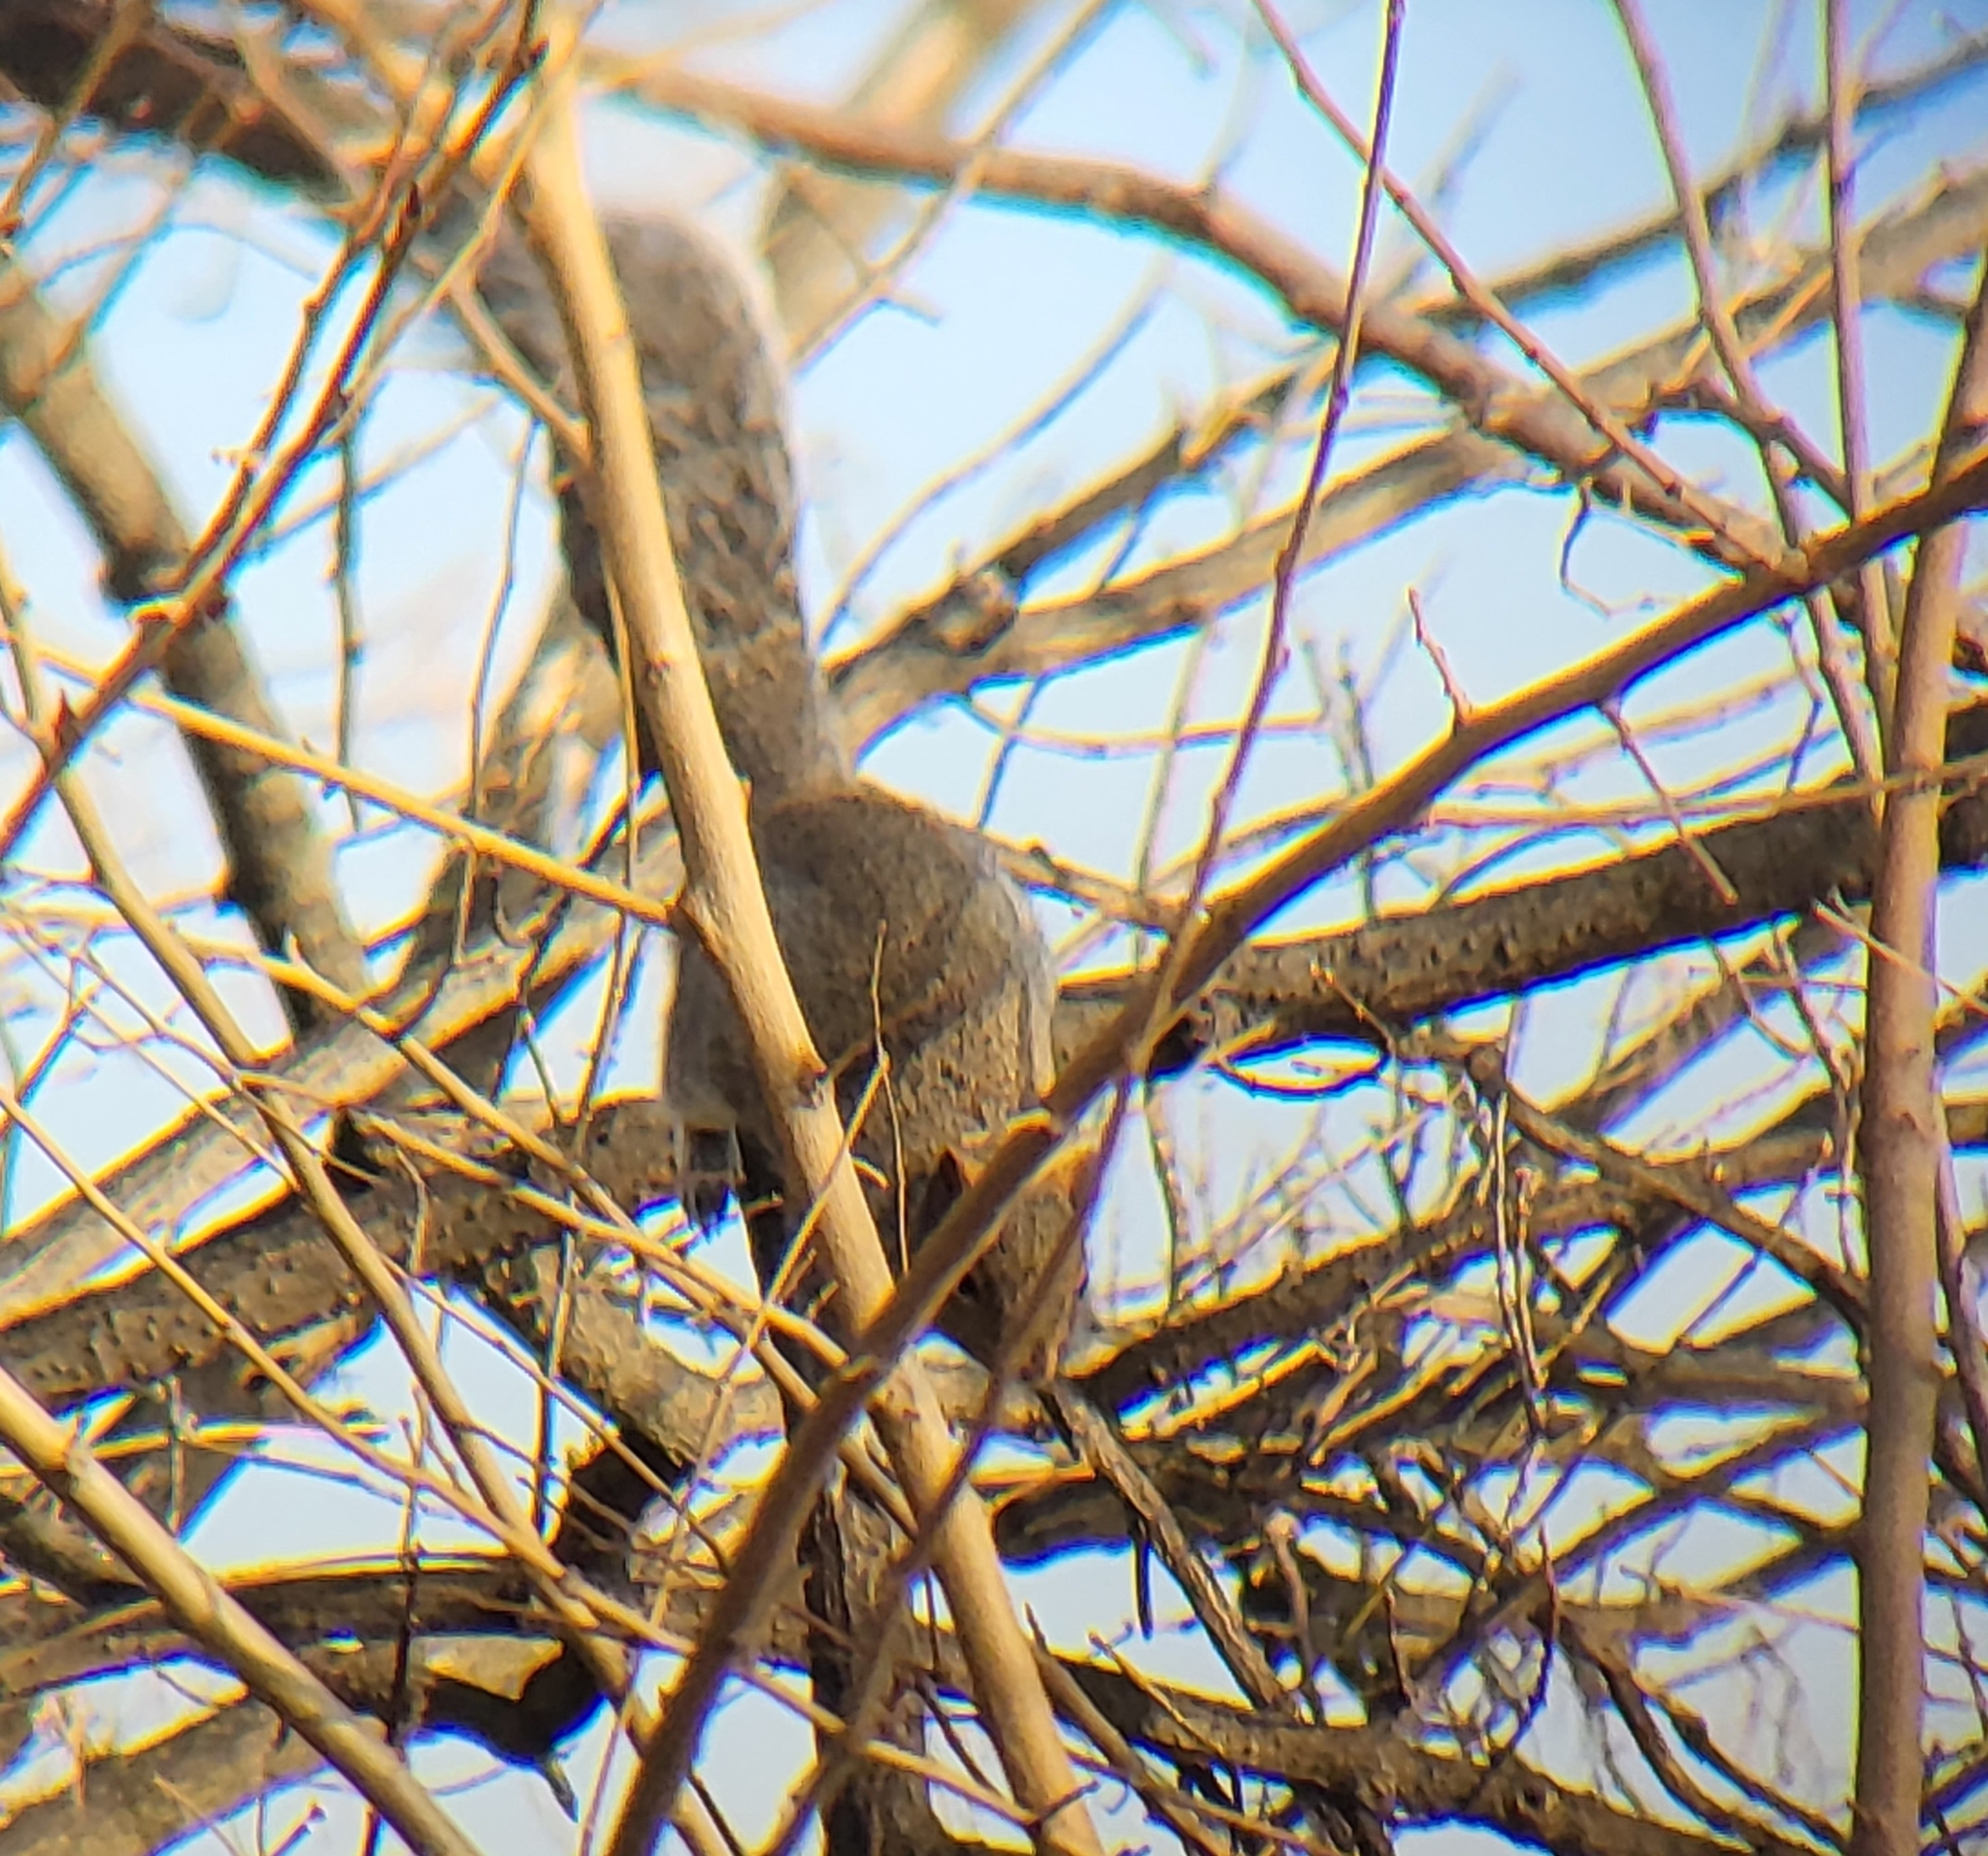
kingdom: Animalia
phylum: Chordata
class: Mammalia
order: Rodentia
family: Sciuridae
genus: Sciurus
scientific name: Sciurus carolinensis
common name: Eastern gray squirrel
